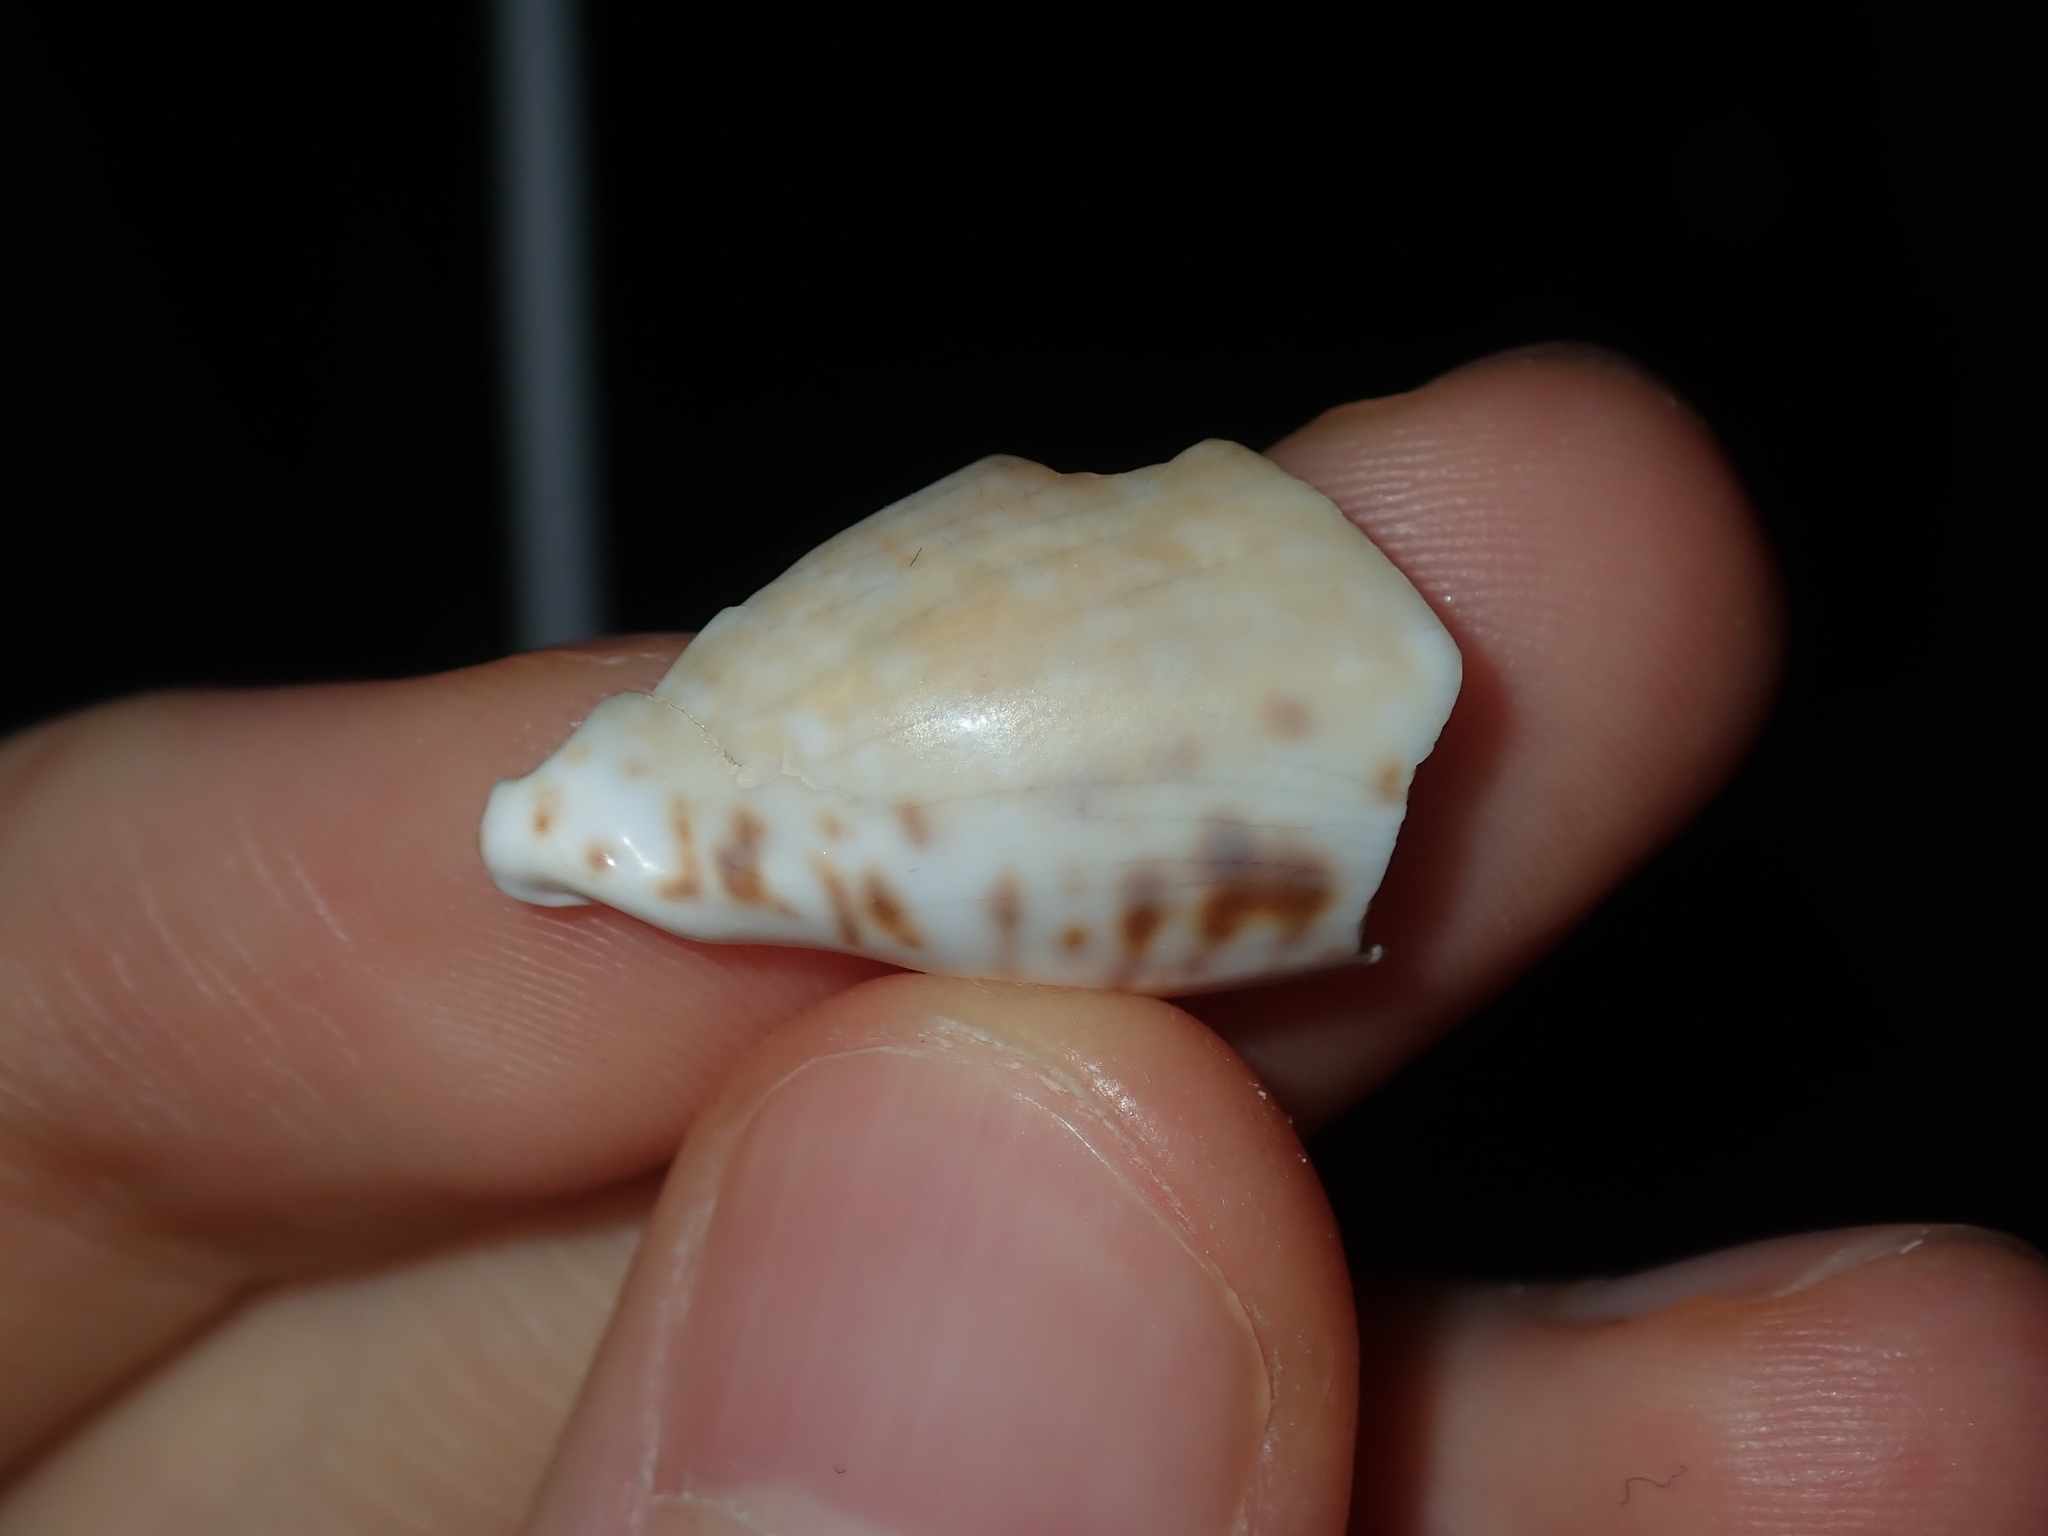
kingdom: Animalia
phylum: Mollusca
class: Gastropoda
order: Littorinimorpha
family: Cypraeidae
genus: Naria
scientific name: Naria erosa
